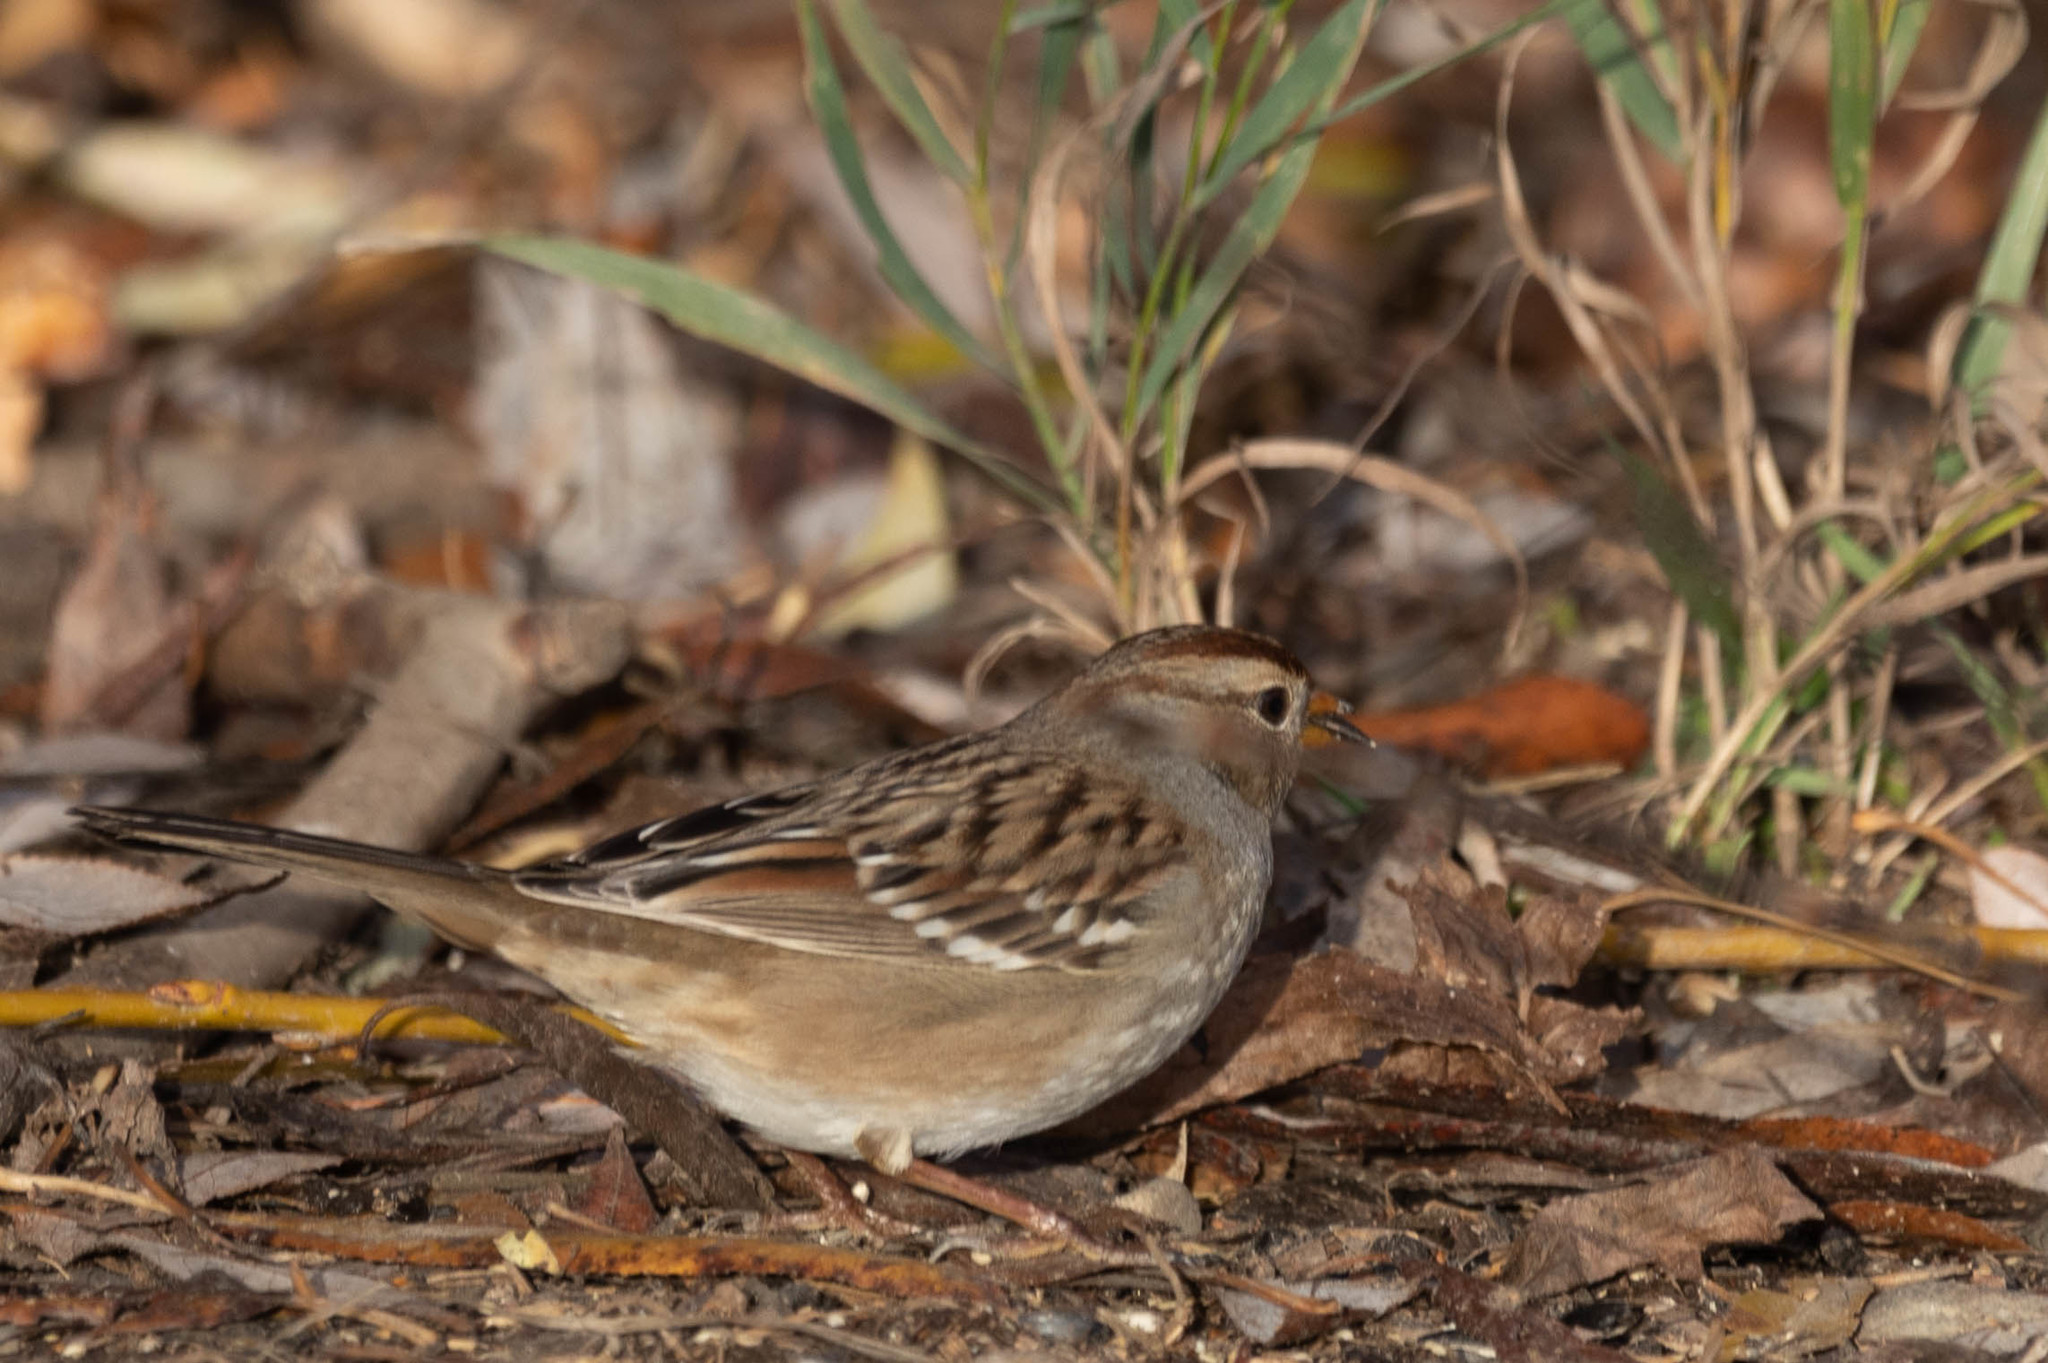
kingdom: Animalia
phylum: Chordata
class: Aves
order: Passeriformes
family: Passerellidae
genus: Zonotrichia
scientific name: Zonotrichia leucophrys
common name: White-crowned sparrow
